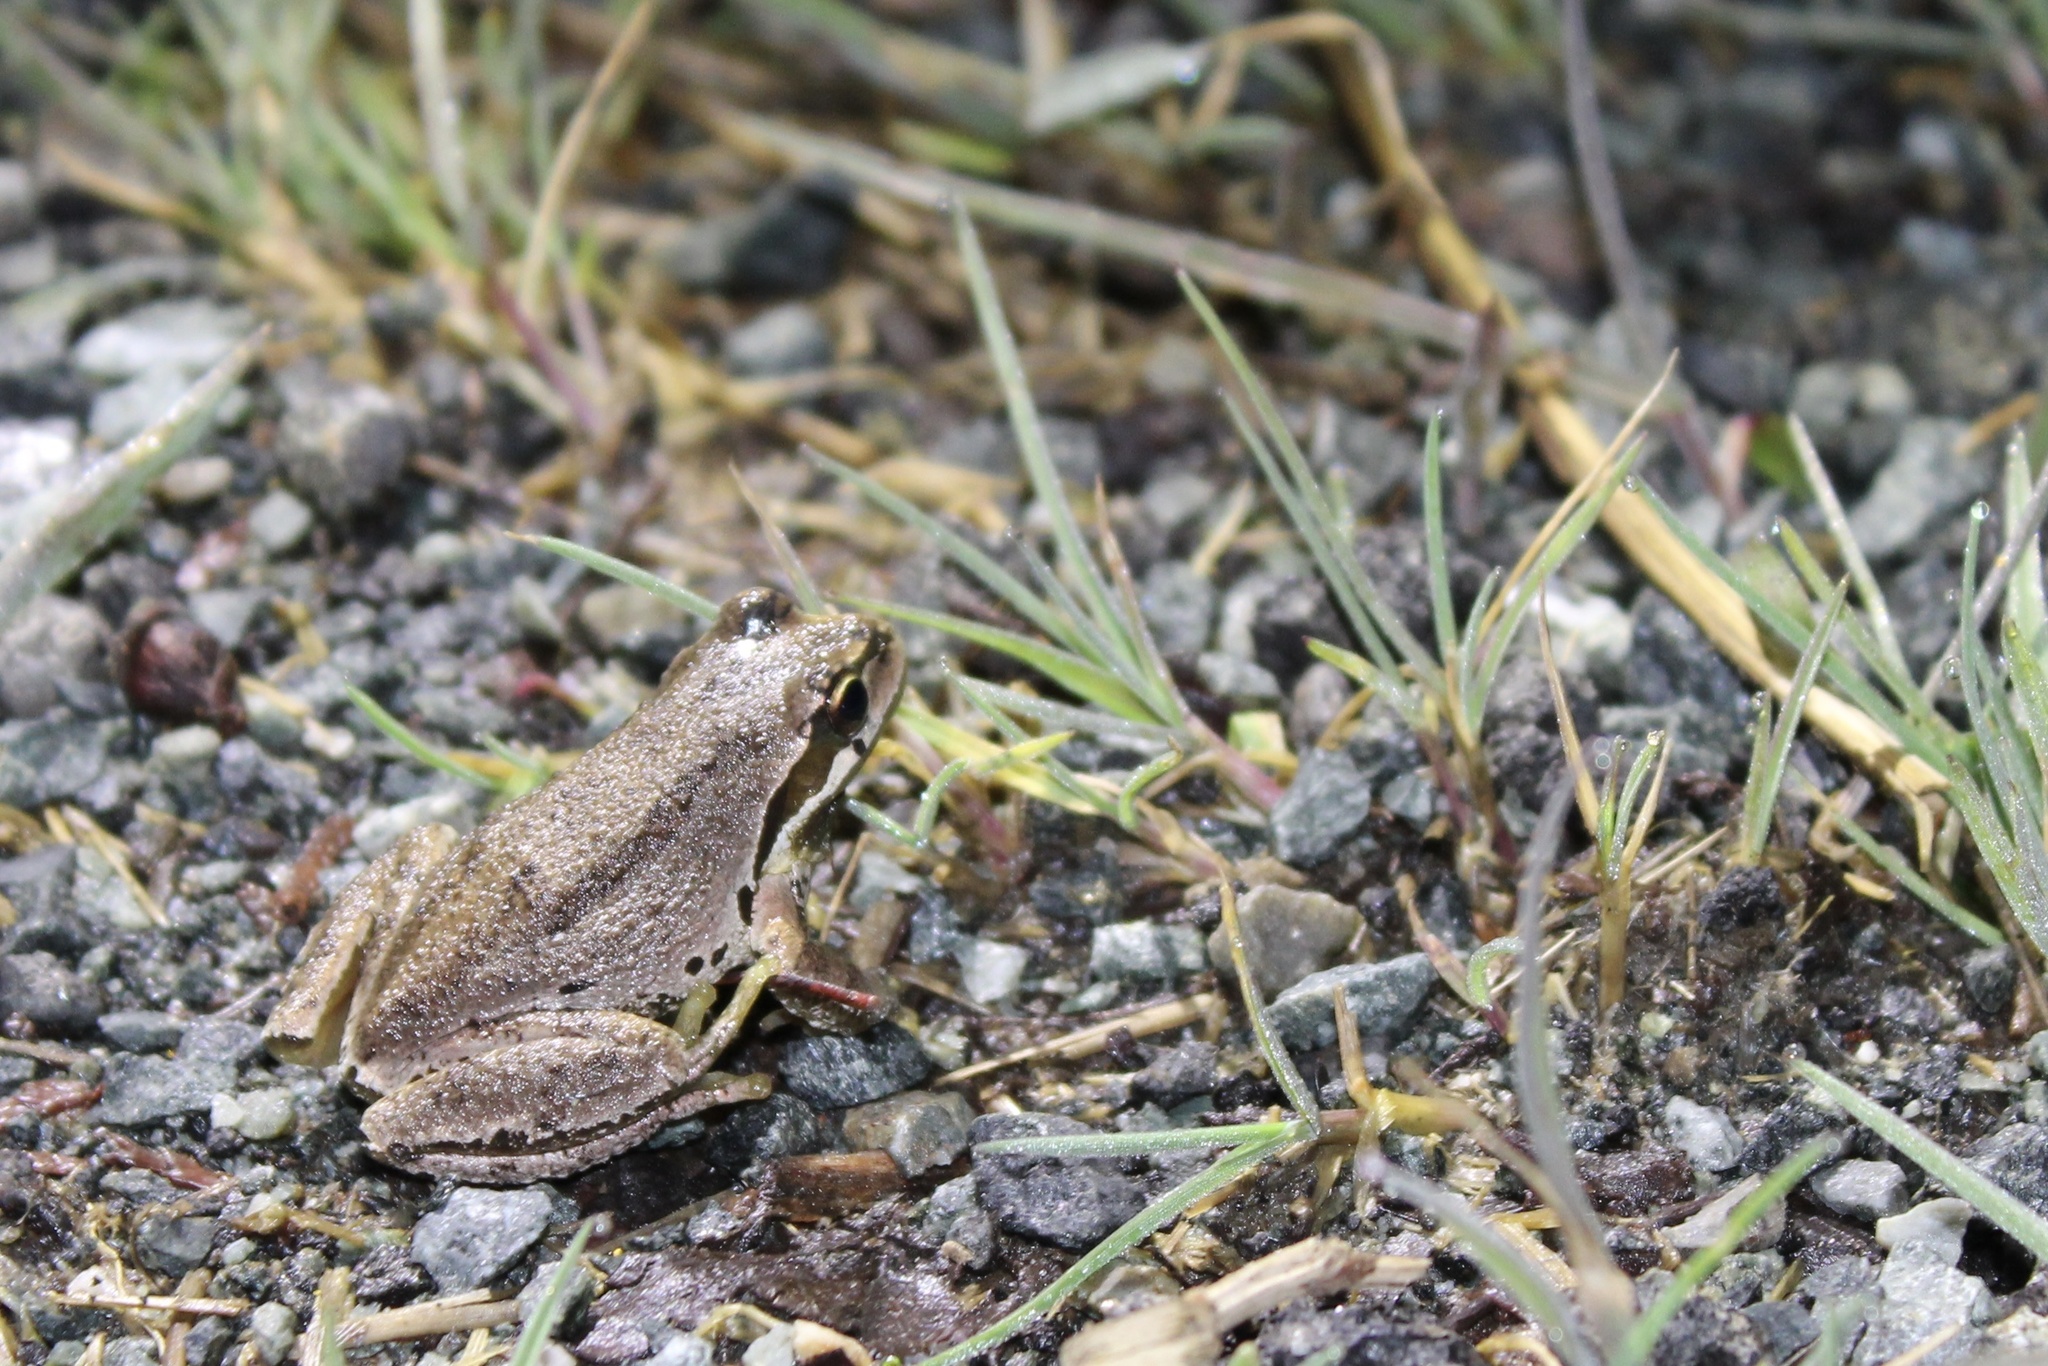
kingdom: Animalia
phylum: Chordata
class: Amphibia
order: Anura
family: Hylidae
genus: Pseudacris
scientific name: Pseudacris regilla
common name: Pacific chorus frog
